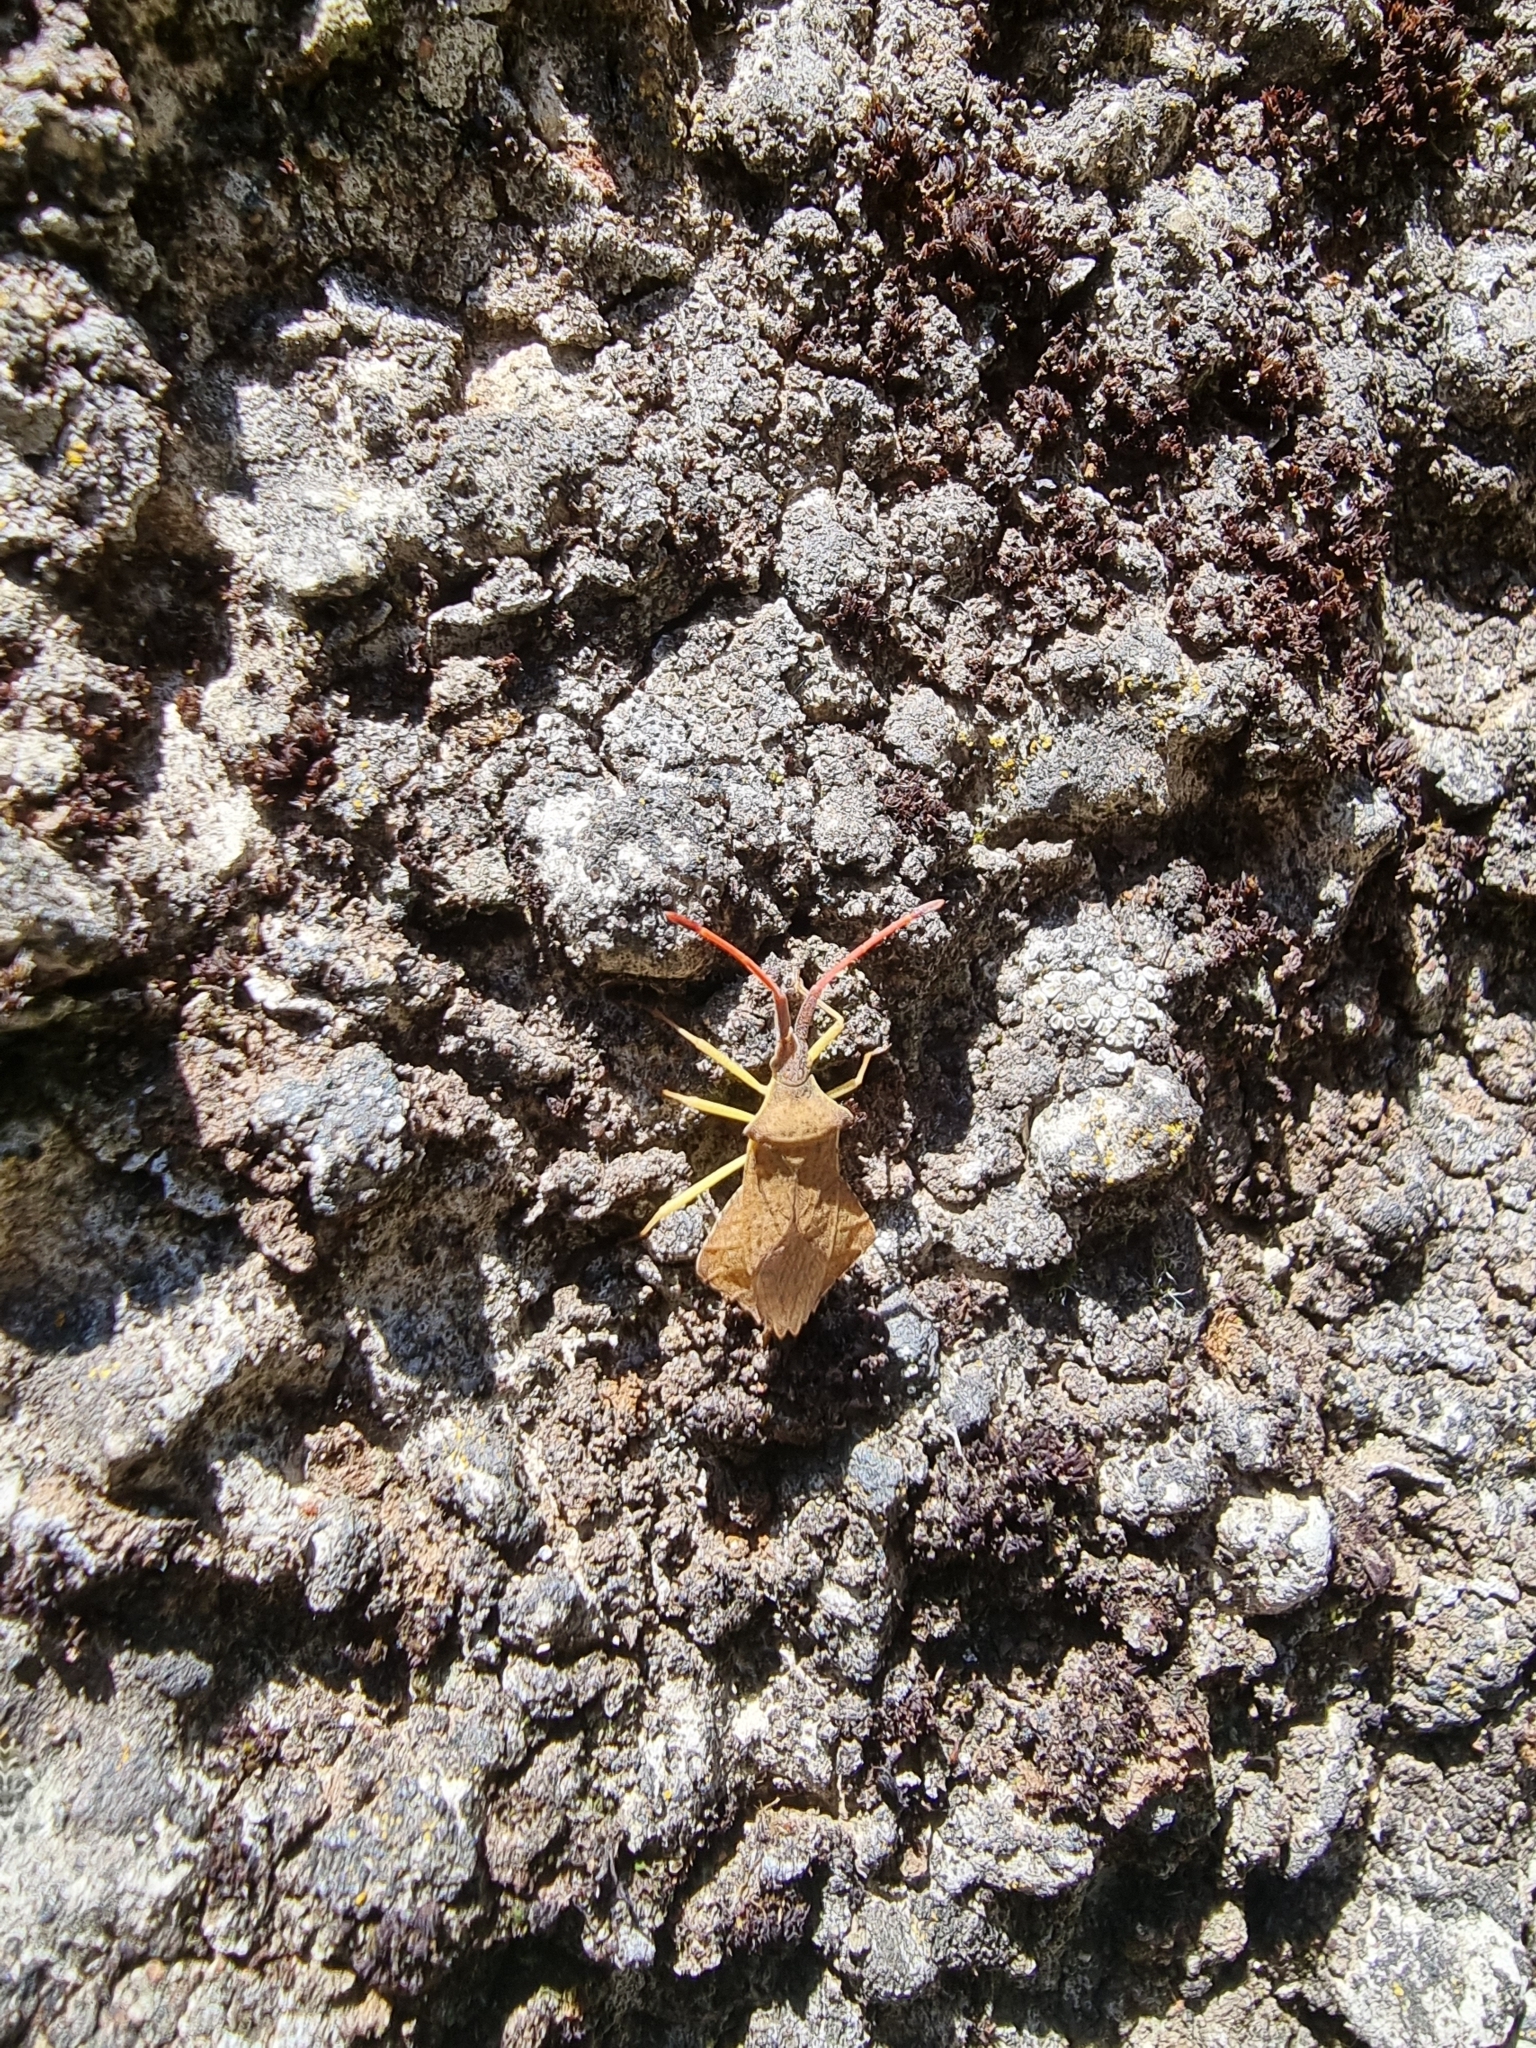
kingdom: Animalia
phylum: Arthropoda
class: Insecta
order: Hemiptera
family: Coreidae
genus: Syromastus
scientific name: Syromastus rhombeus
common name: Rhombic leatherbug
